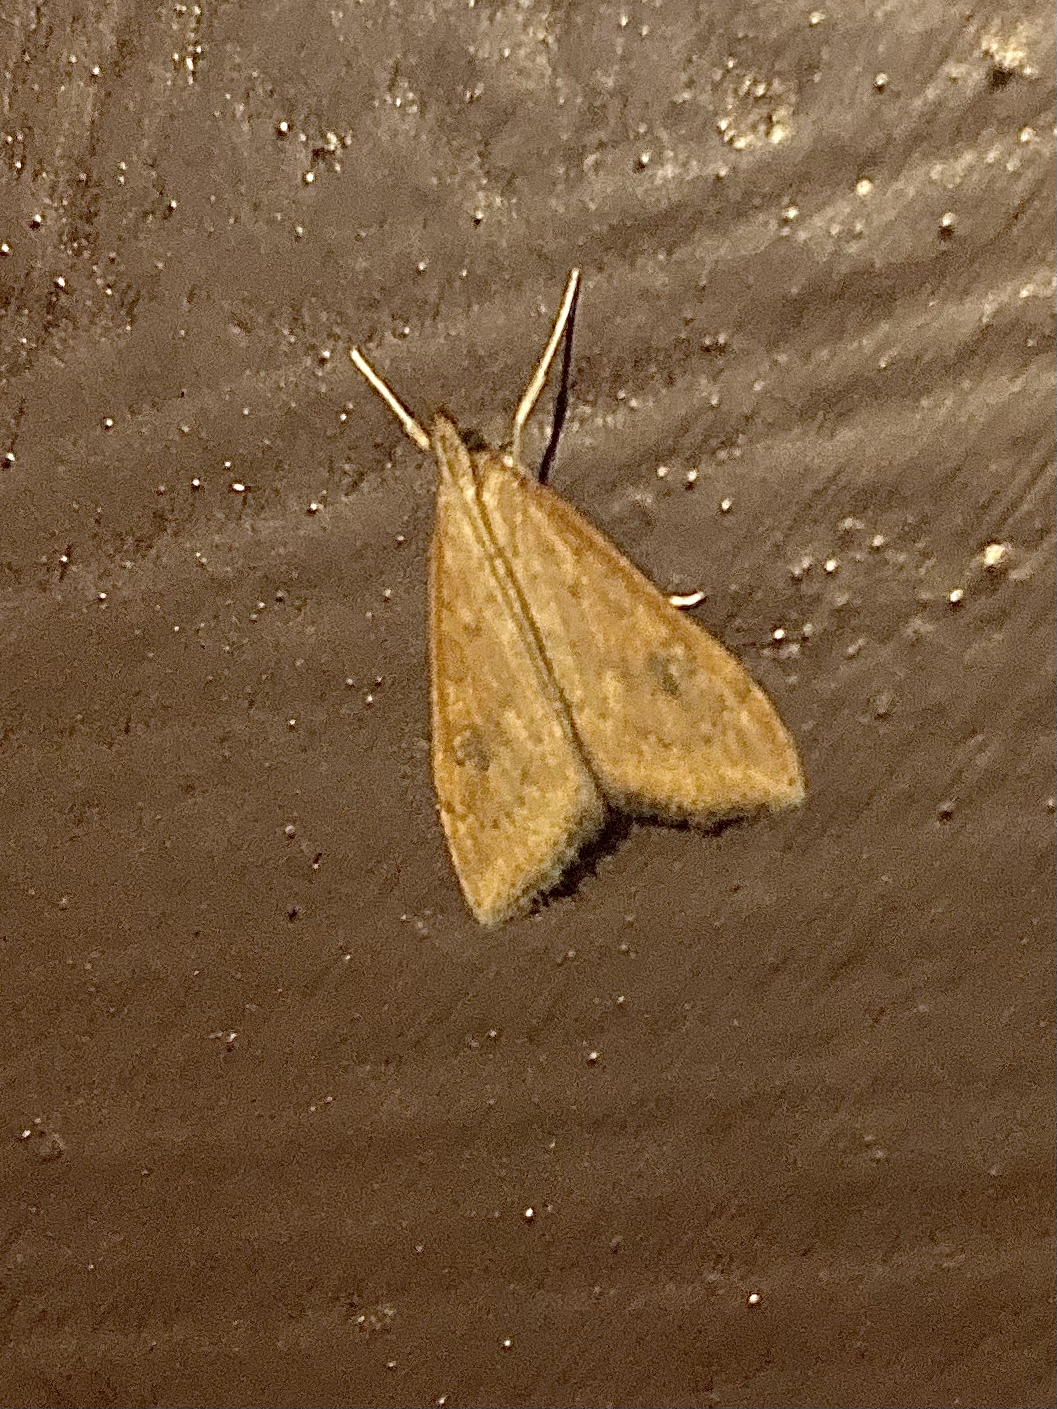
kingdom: Animalia
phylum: Arthropoda
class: Insecta
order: Lepidoptera
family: Crambidae
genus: Udea
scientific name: Udea ferrugalis
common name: Rusty dot
